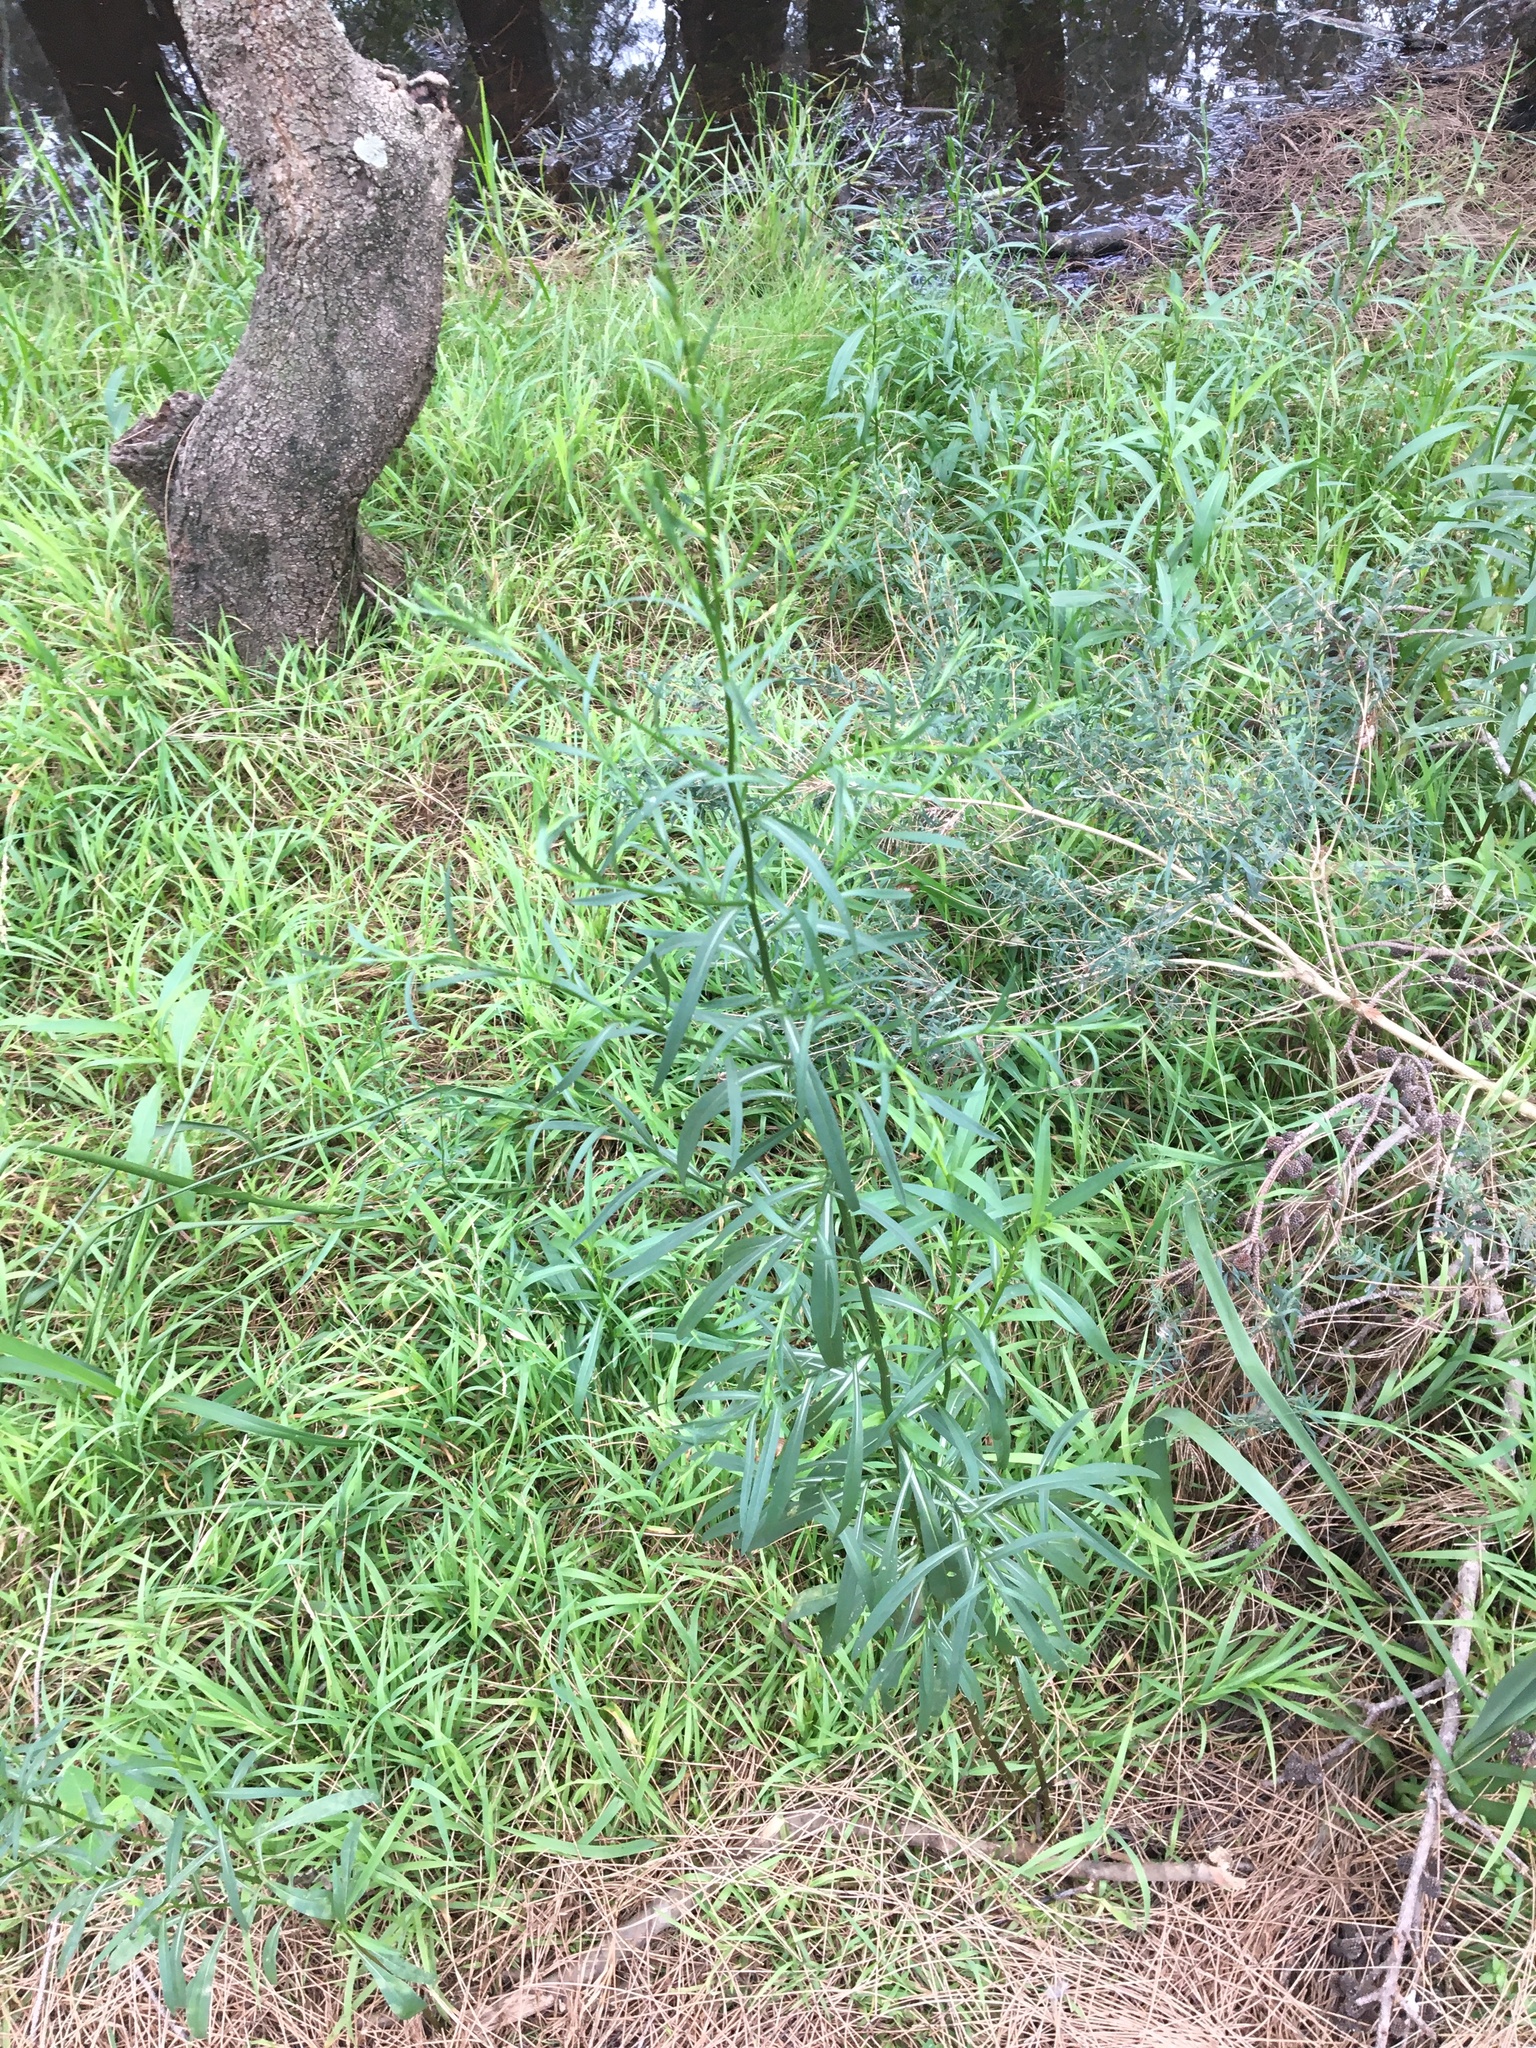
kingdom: Plantae
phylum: Tracheophyta
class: Magnoliopsida
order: Asterales
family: Asteraceae
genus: Symphyotrichum
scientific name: Symphyotrichum subulatum
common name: Annual saltmarsh aster
